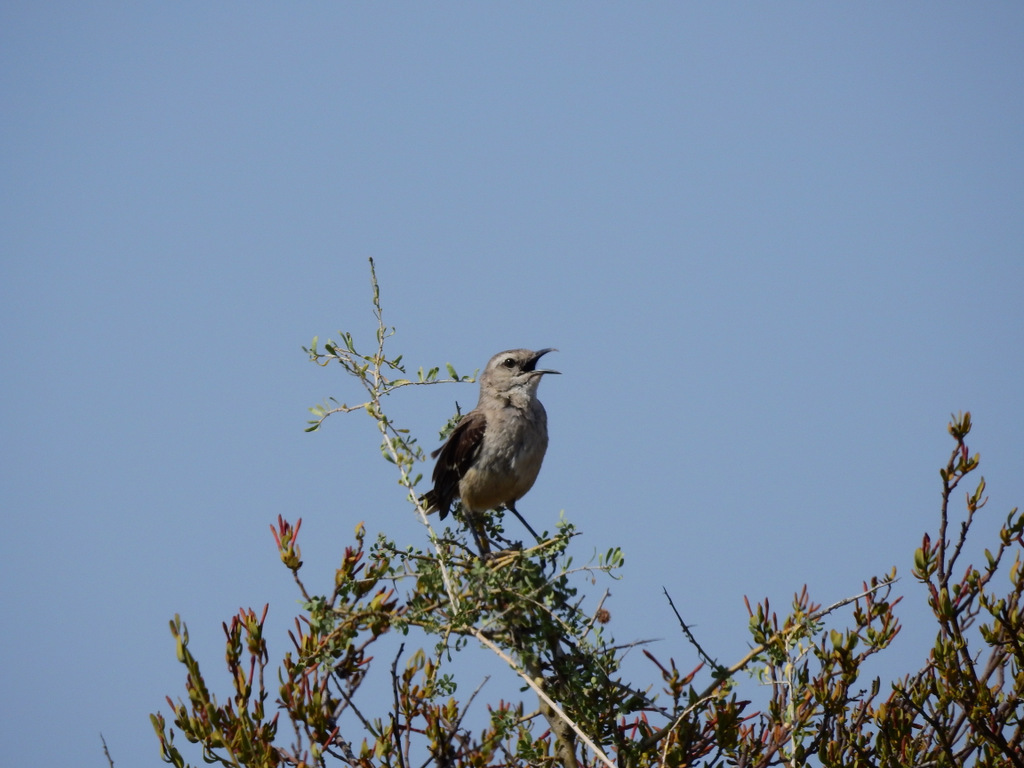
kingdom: Animalia
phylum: Chordata
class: Aves
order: Passeriformes
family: Mimidae
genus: Mimus
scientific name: Mimus patagonicus
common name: Patagonian mockingbird
